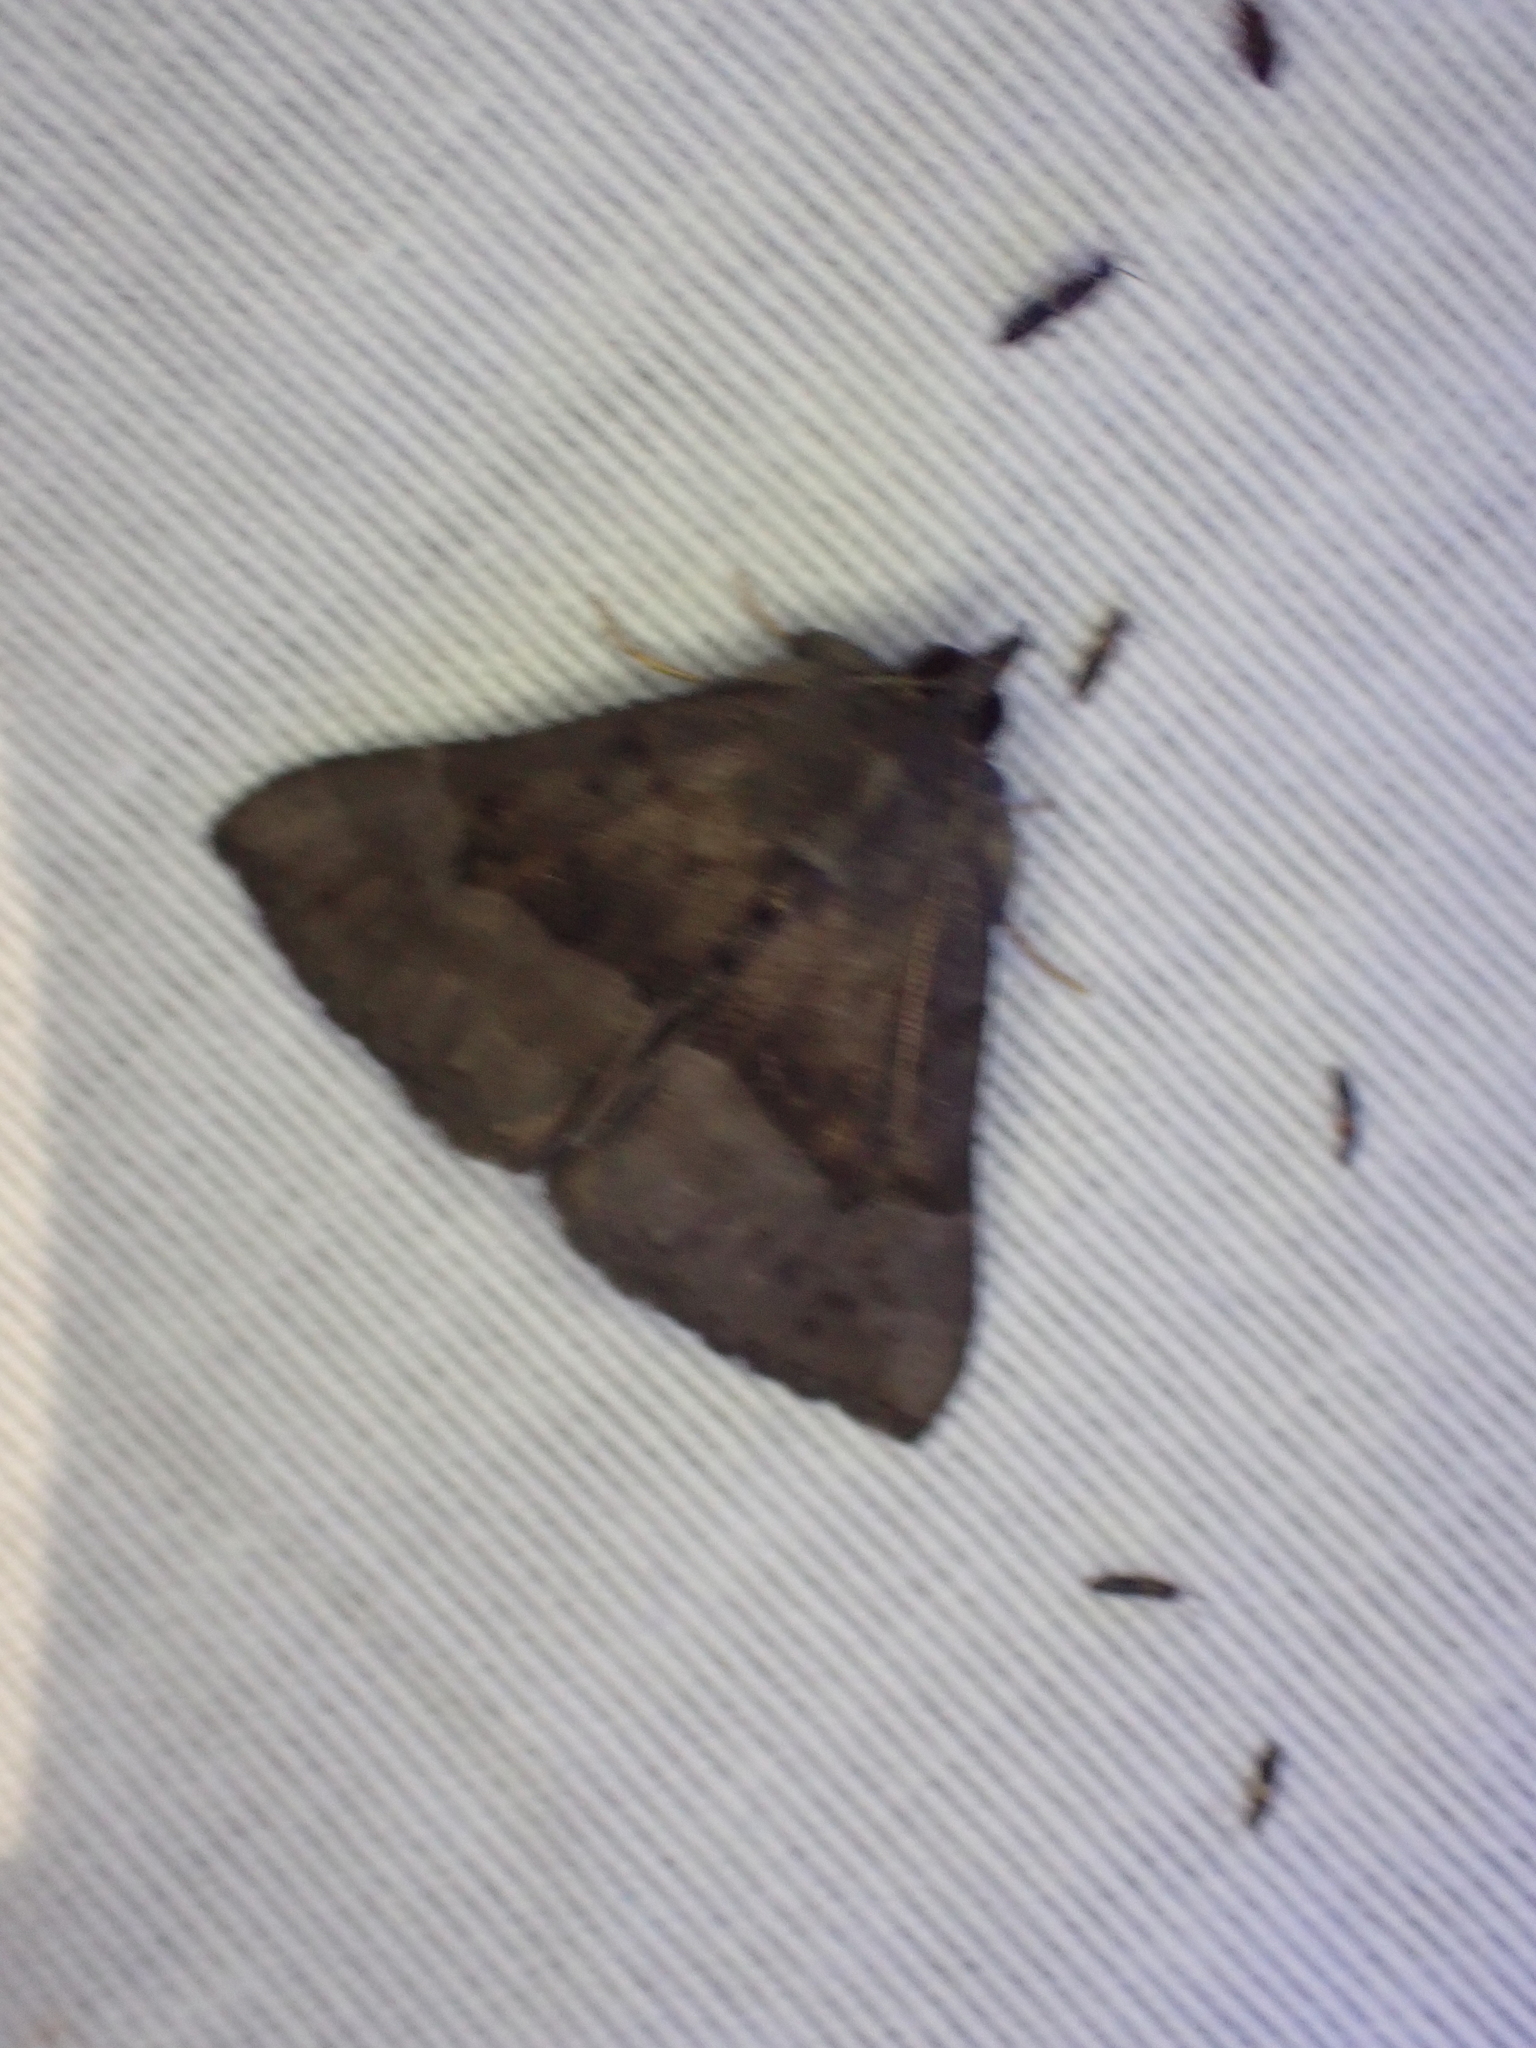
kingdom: Animalia
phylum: Arthropoda
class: Insecta
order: Lepidoptera
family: Erebidae
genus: Hypena
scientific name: Hypena madefactalis
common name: Gray-edged snout
